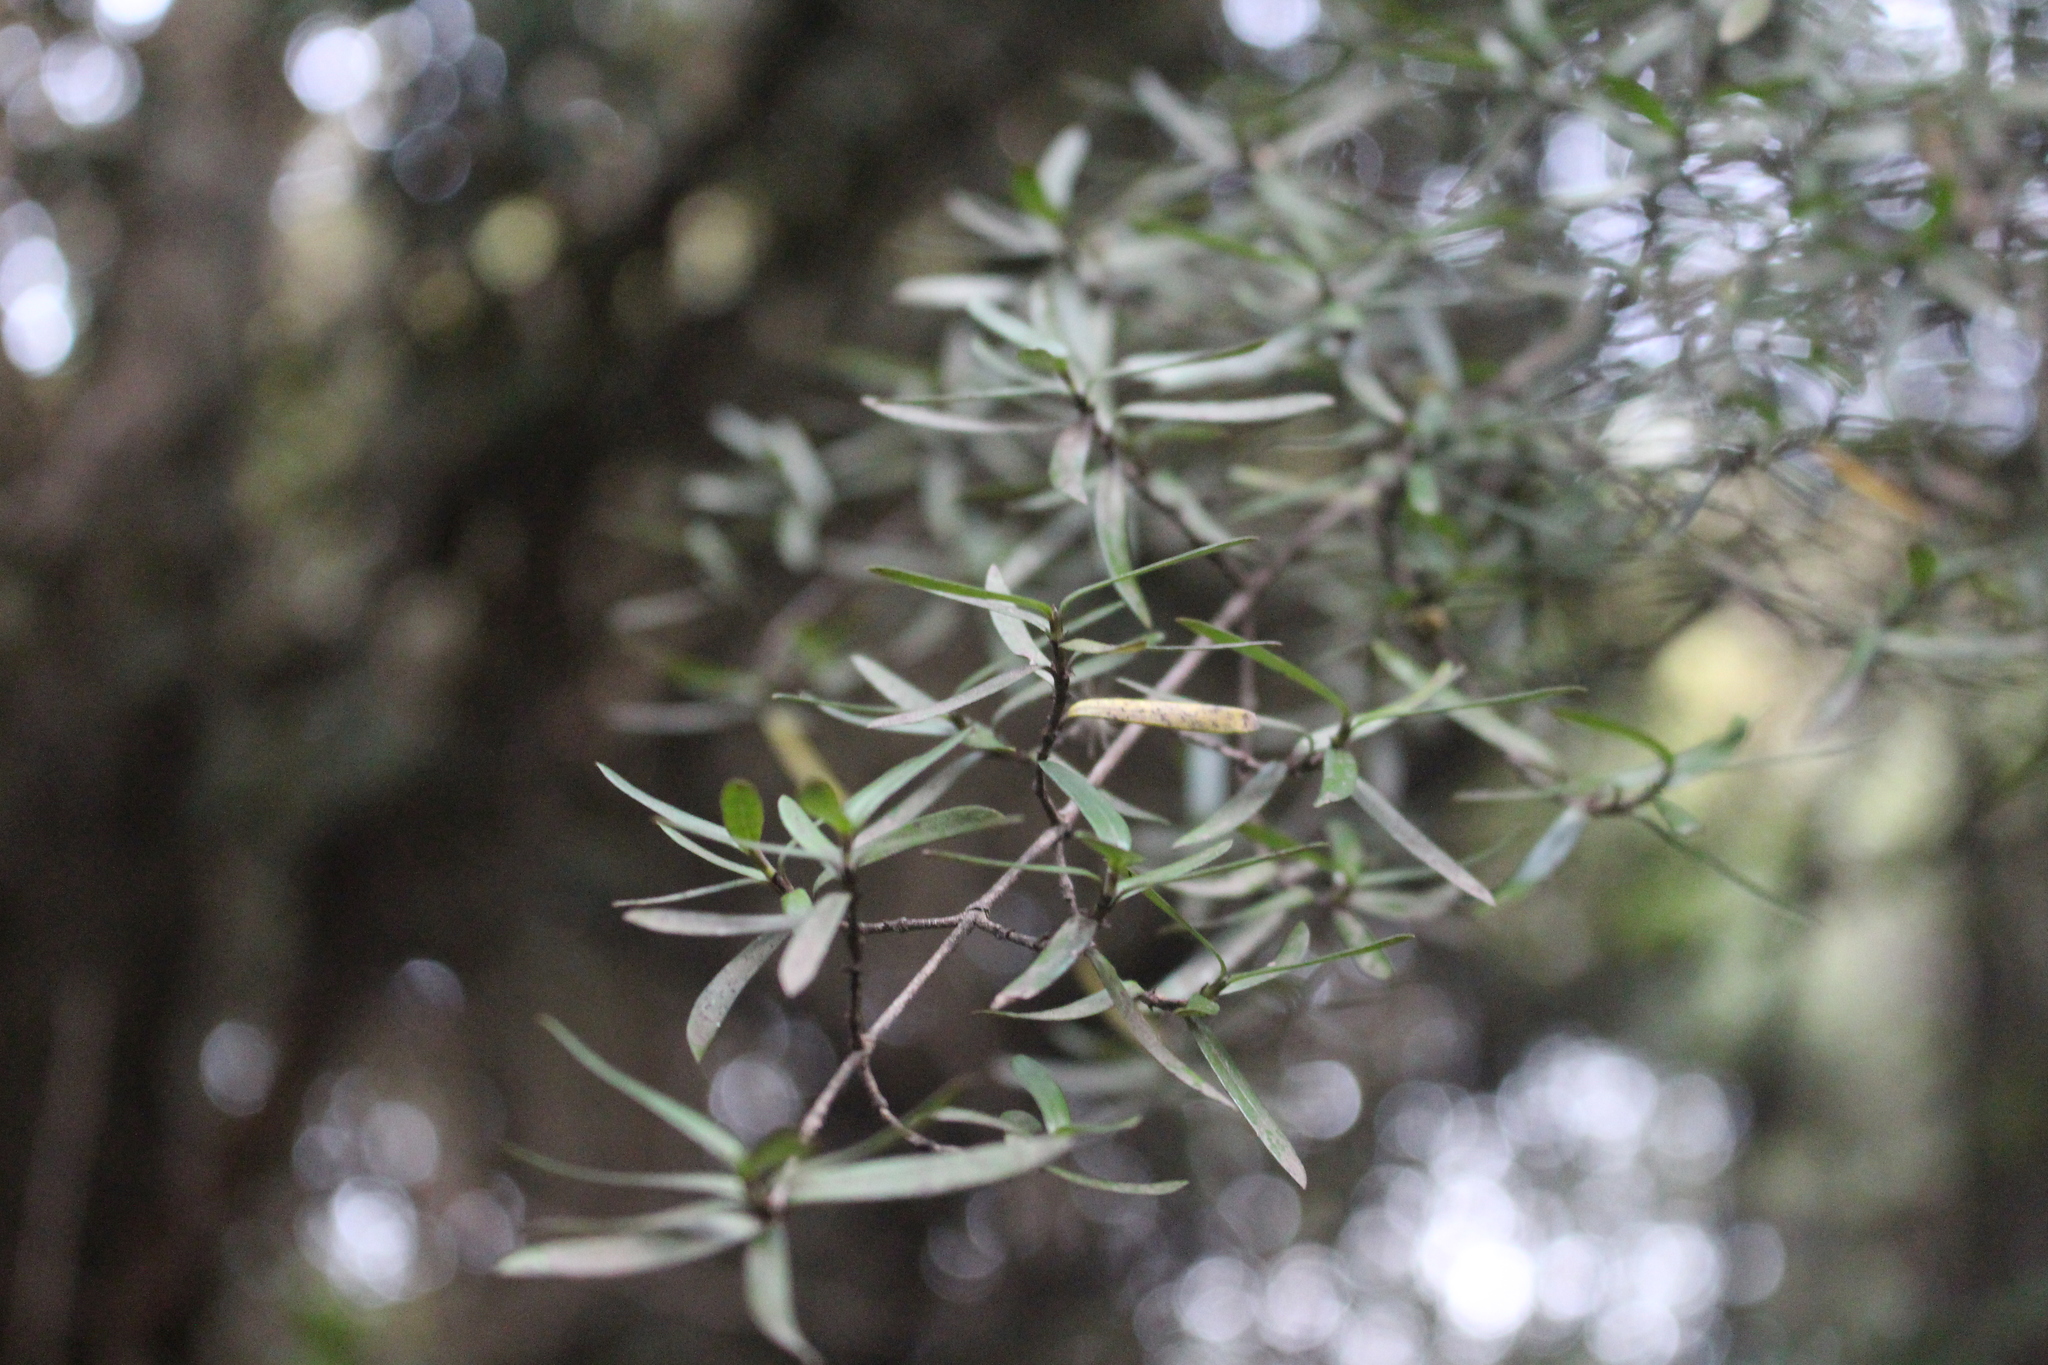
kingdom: Plantae
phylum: Tracheophyta
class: Magnoliopsida
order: Gentianales
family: Rubiaceae
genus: Coprosma
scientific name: Coprosma linariifolia
